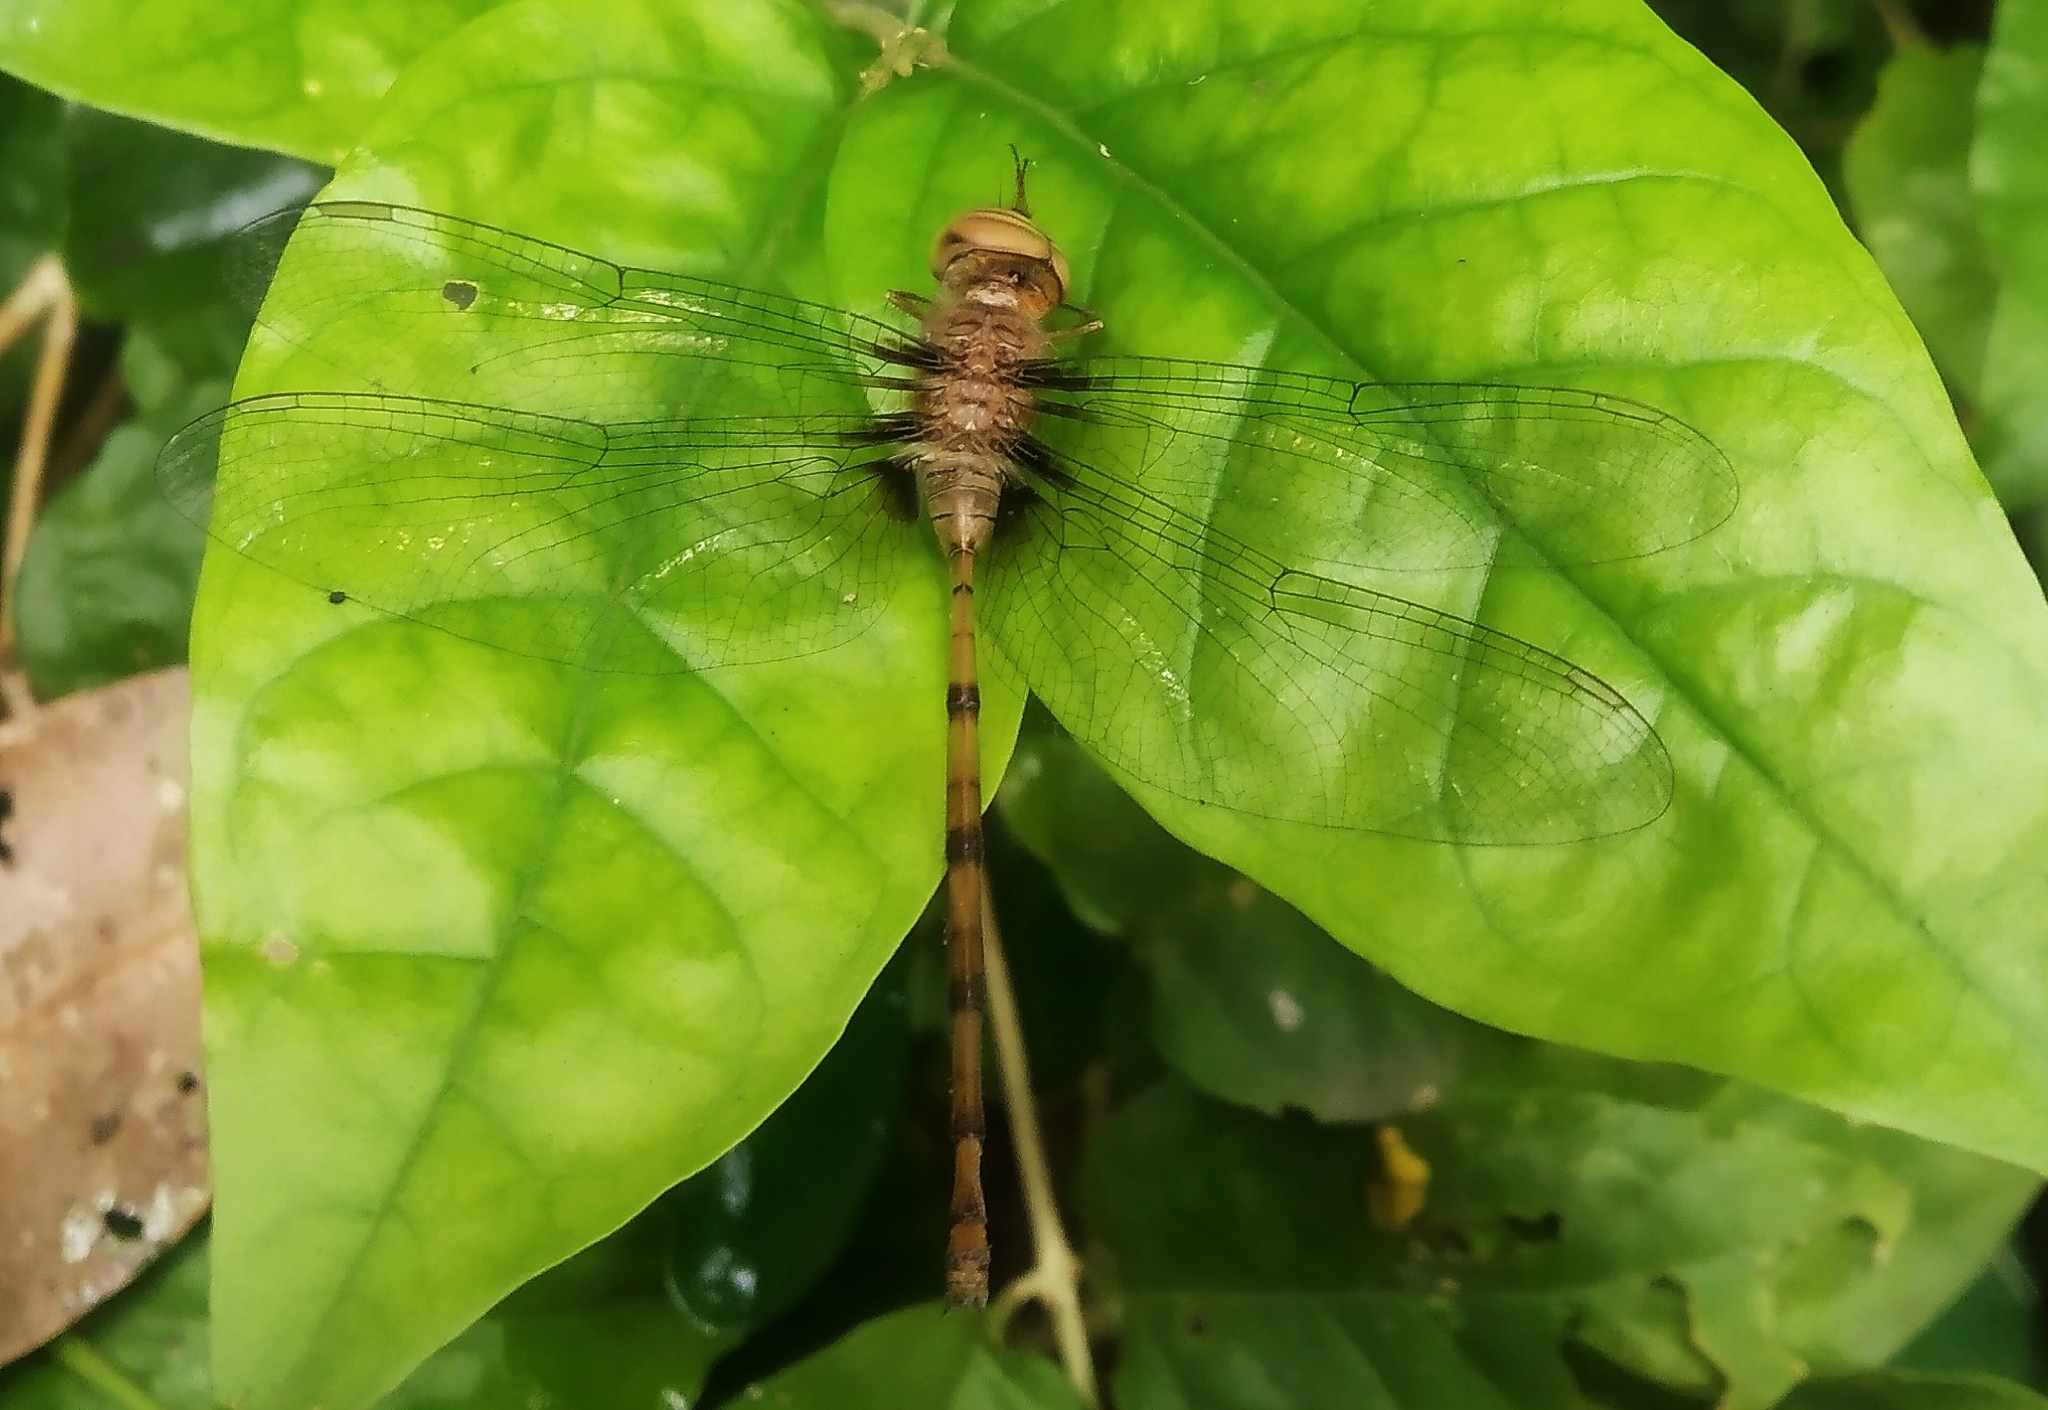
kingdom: Animalia
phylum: Arthropoda
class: Insecta
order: Odonata
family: Libellulidae
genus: Zyxomma
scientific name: Zyxomma petiolatum
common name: Dingy dusk-darter
